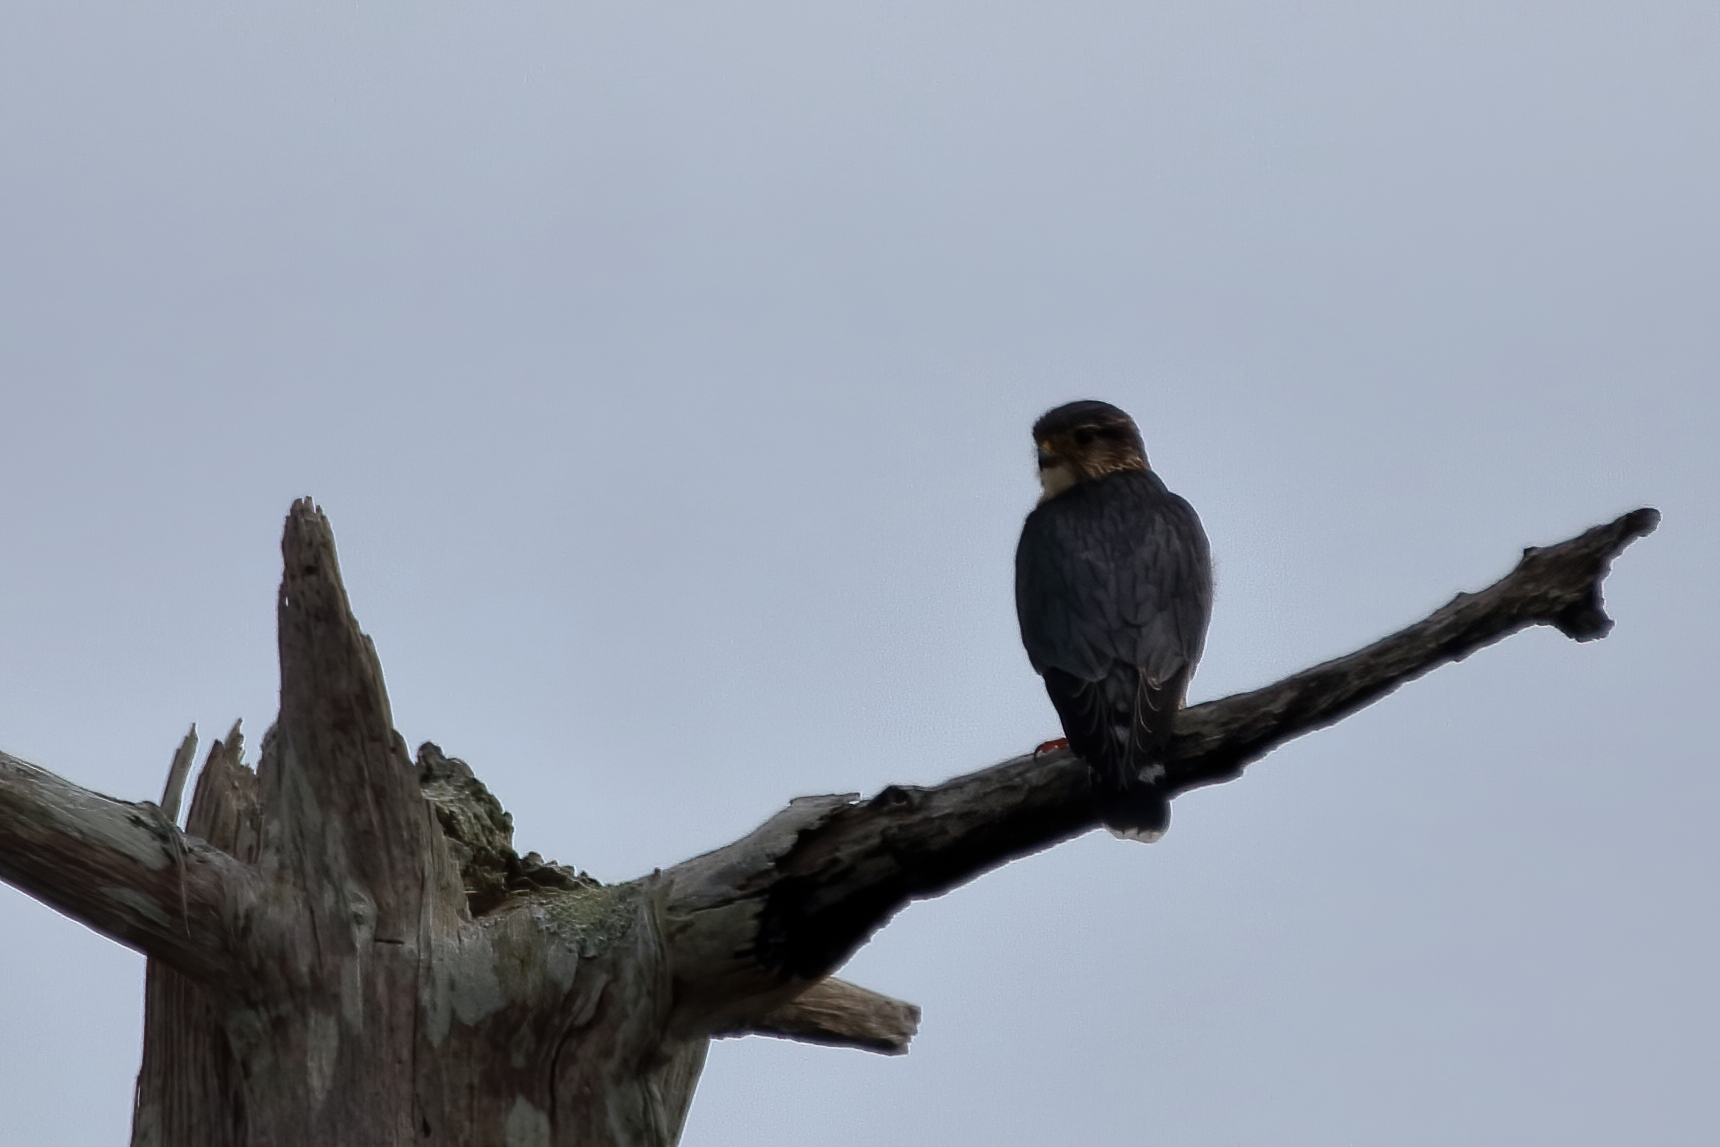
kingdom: Animalia
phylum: Chordata
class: Aves
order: Falconiformes
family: Falconidae
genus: Falco
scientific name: Falco columbarius
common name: Merlin
